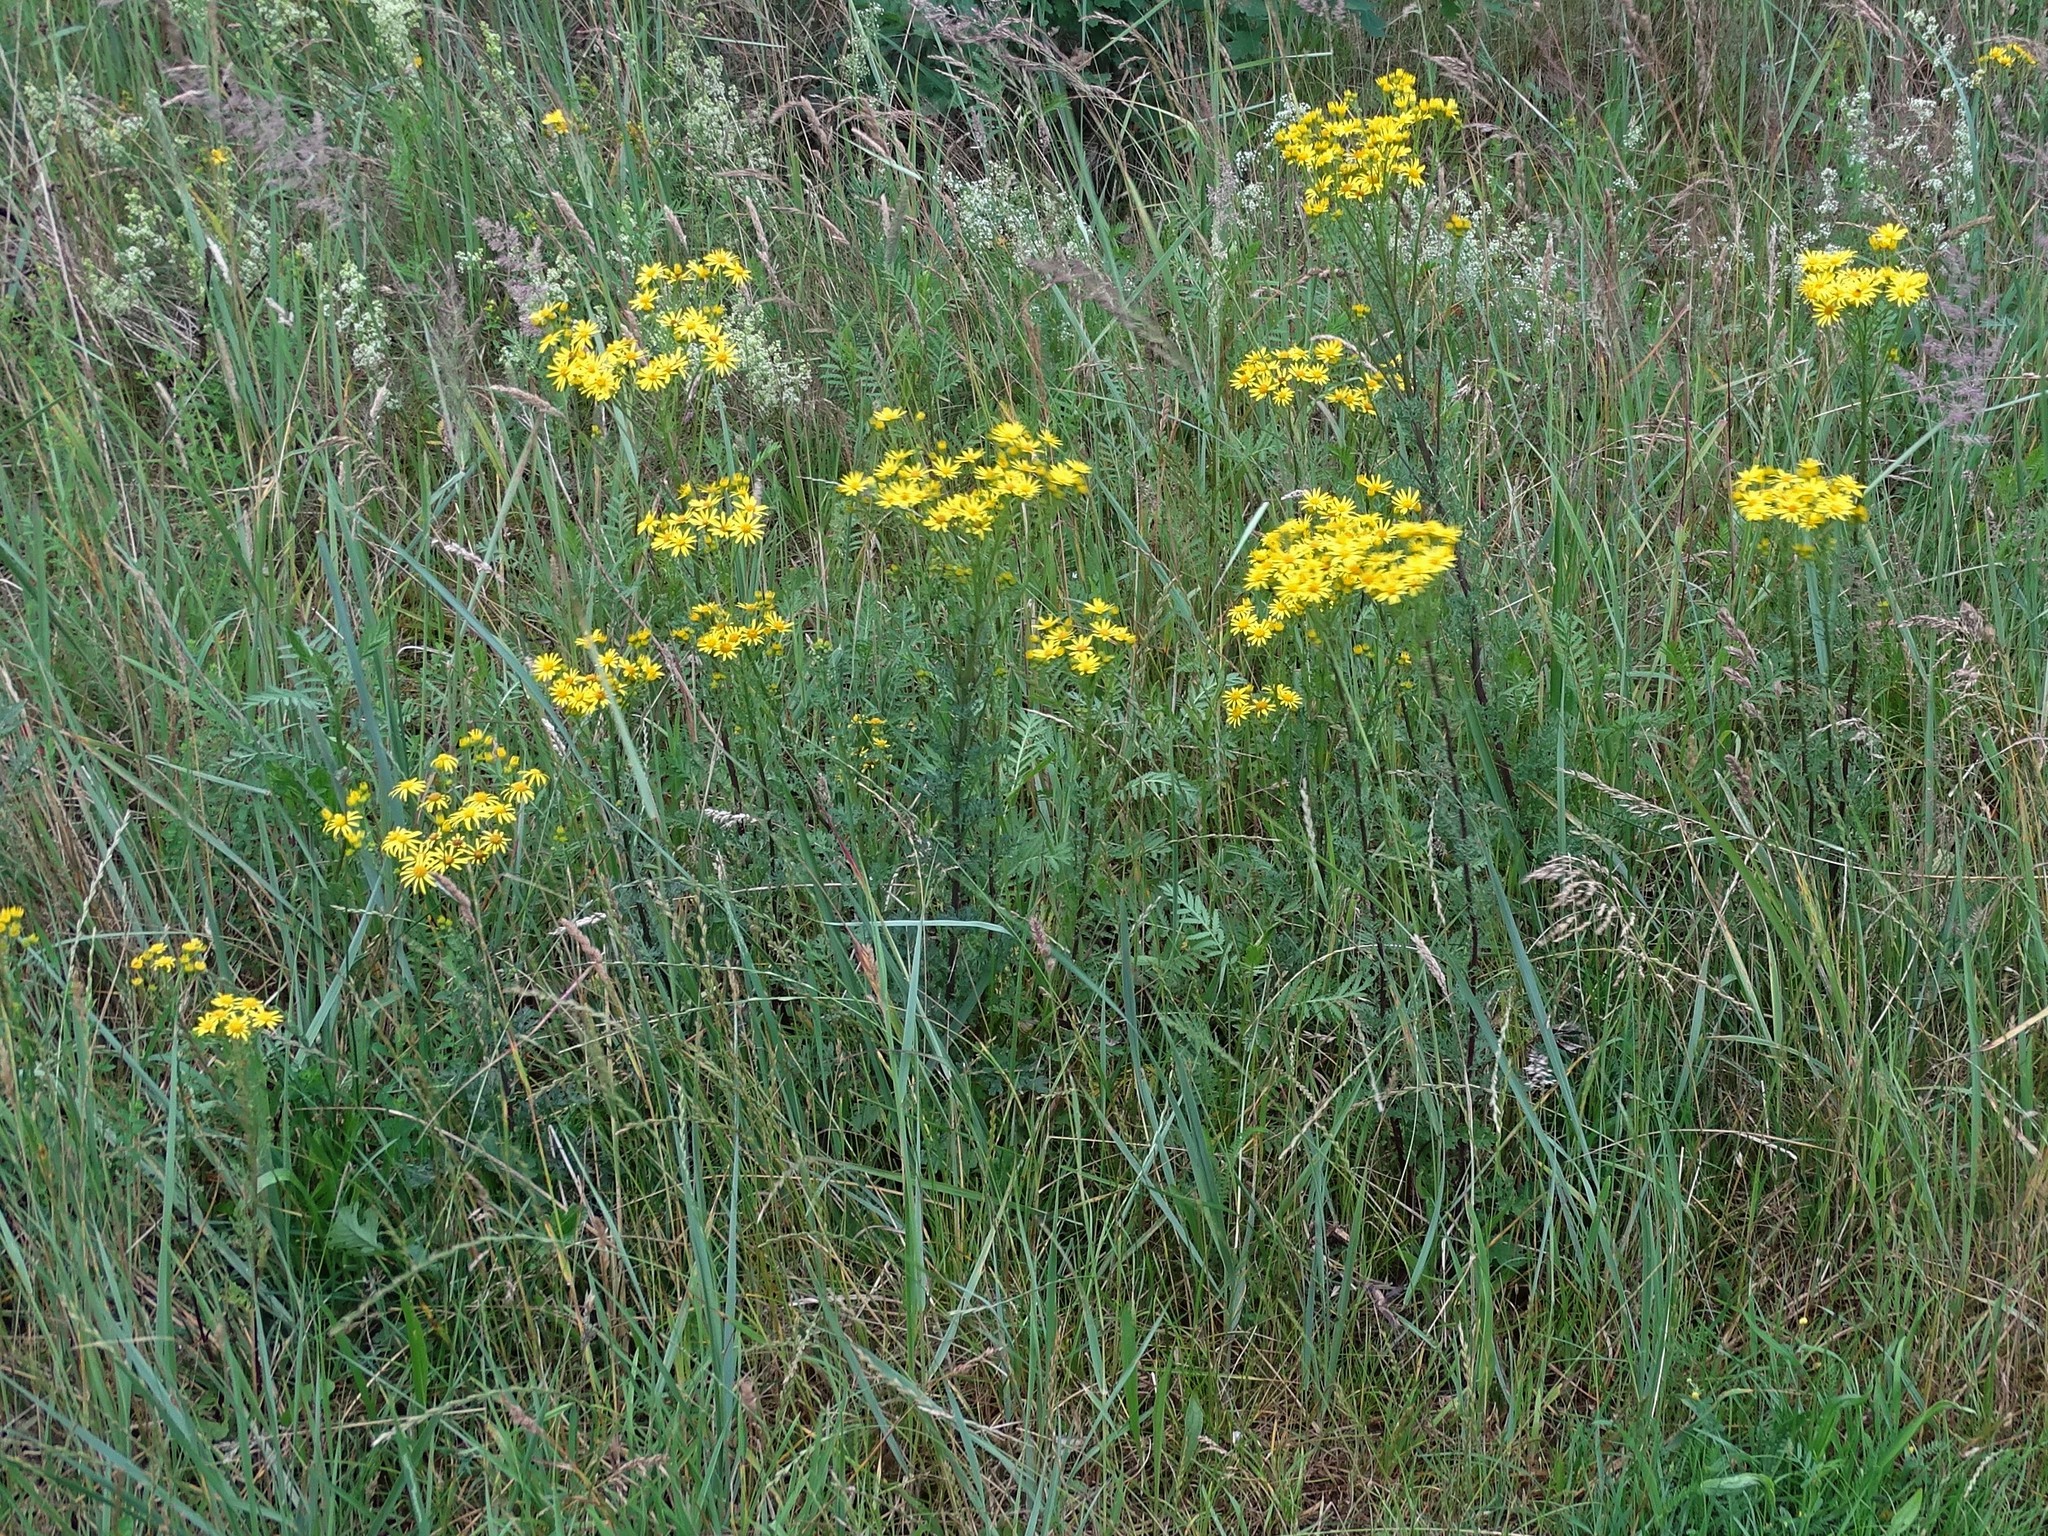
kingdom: Plantae
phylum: Tracheophyta
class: Magnoliopsida
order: Asterales
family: Asteraceae
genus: Jacobaea
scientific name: Jacobaea vulgaris
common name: Stinking willie
